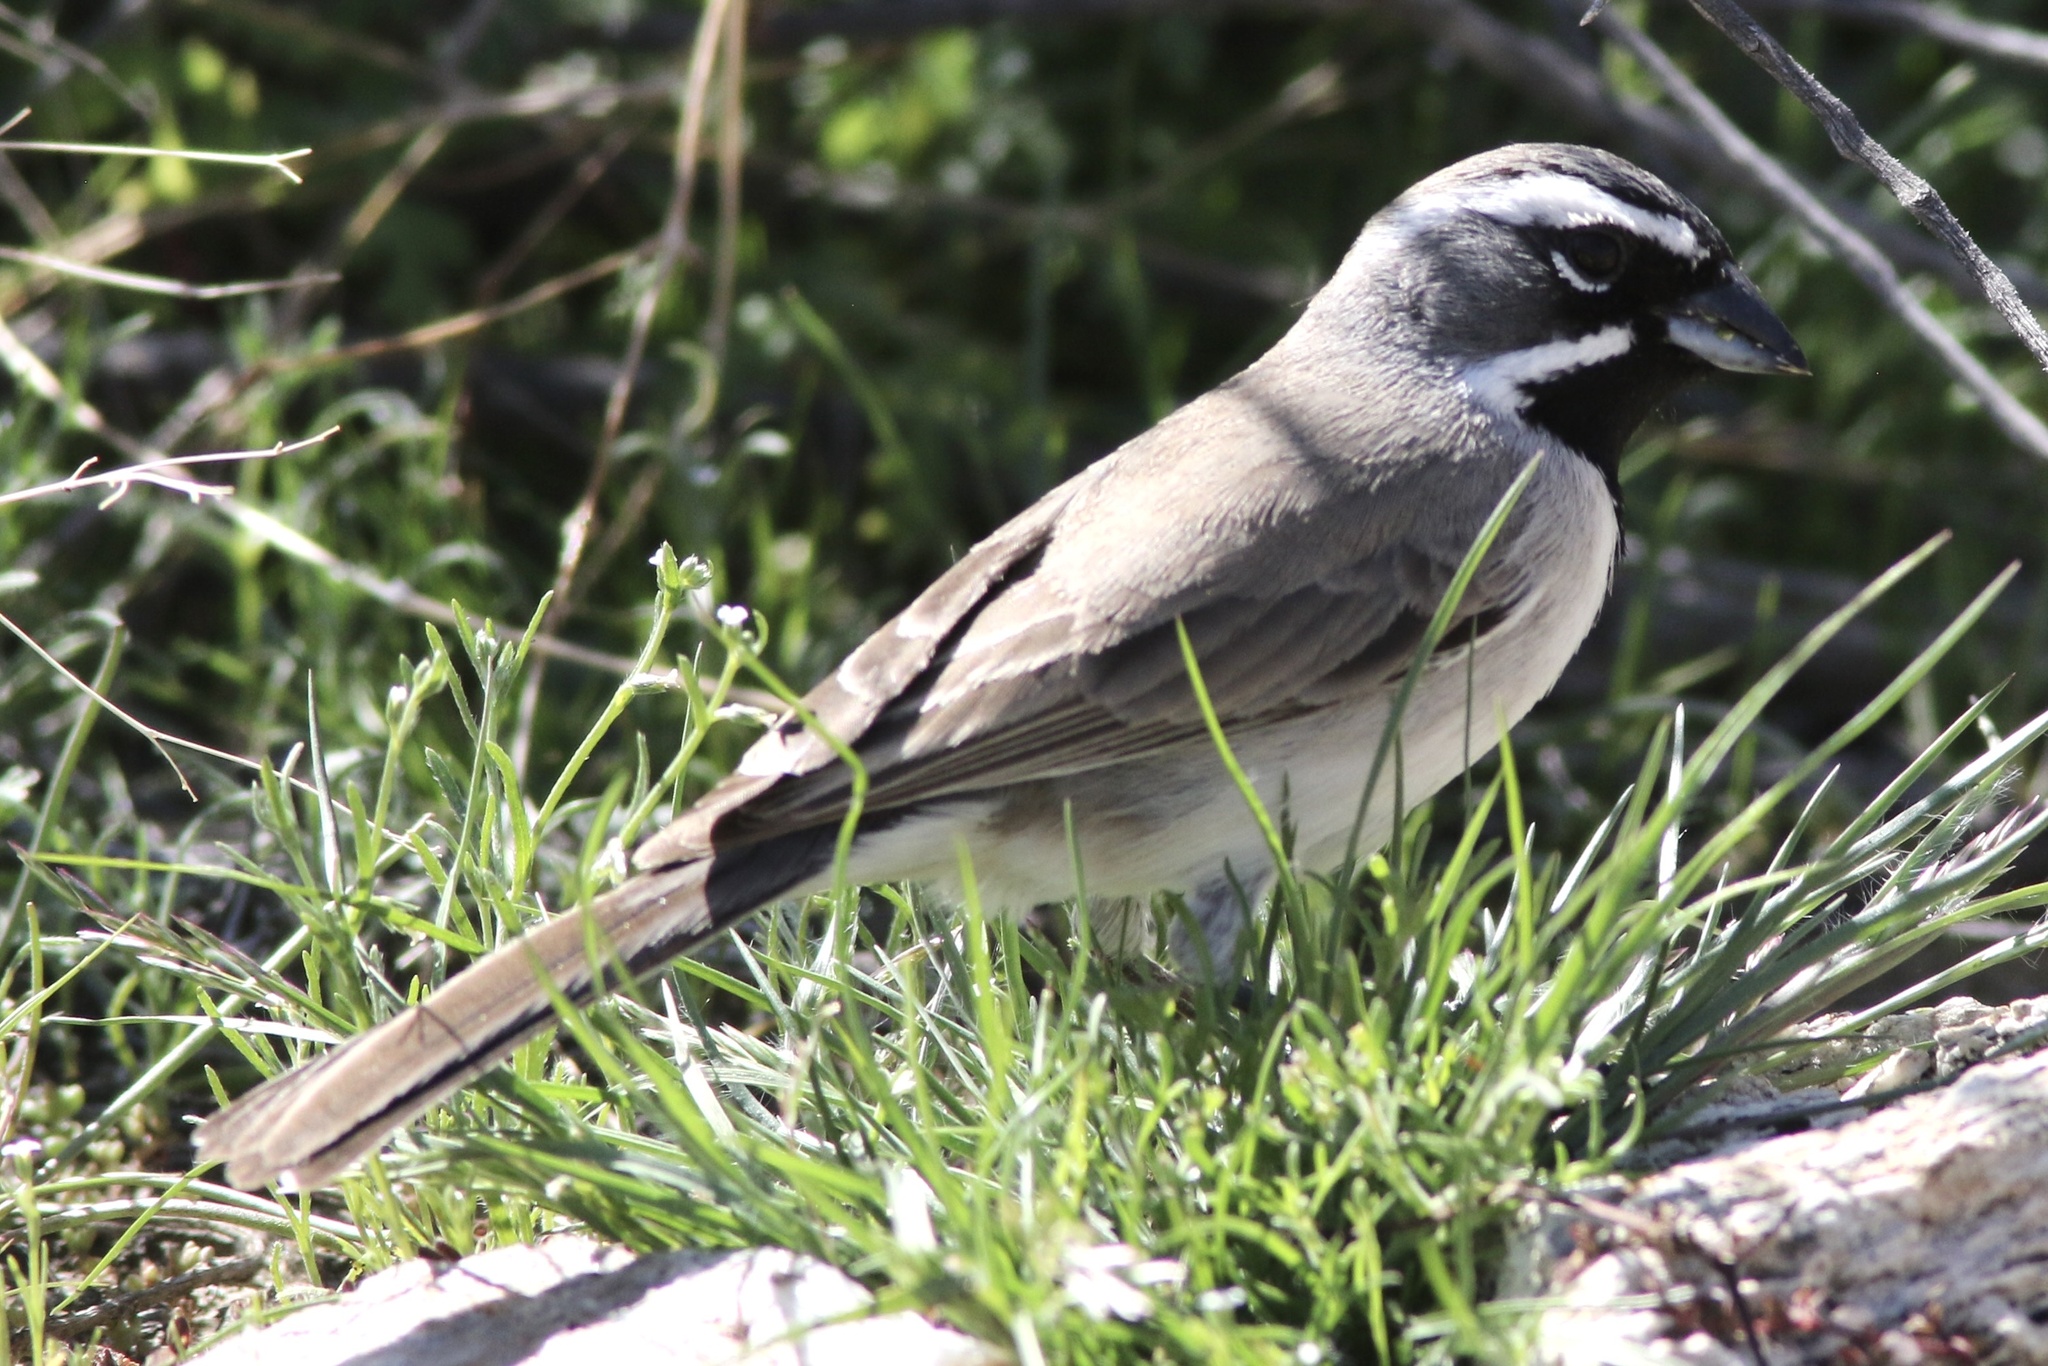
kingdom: Animalia
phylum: Chordata
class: Aves
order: Passeriformes
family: Passerellidae
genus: Amphispiza
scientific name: Amphispiza bilineata
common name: Black-throated sparrow
